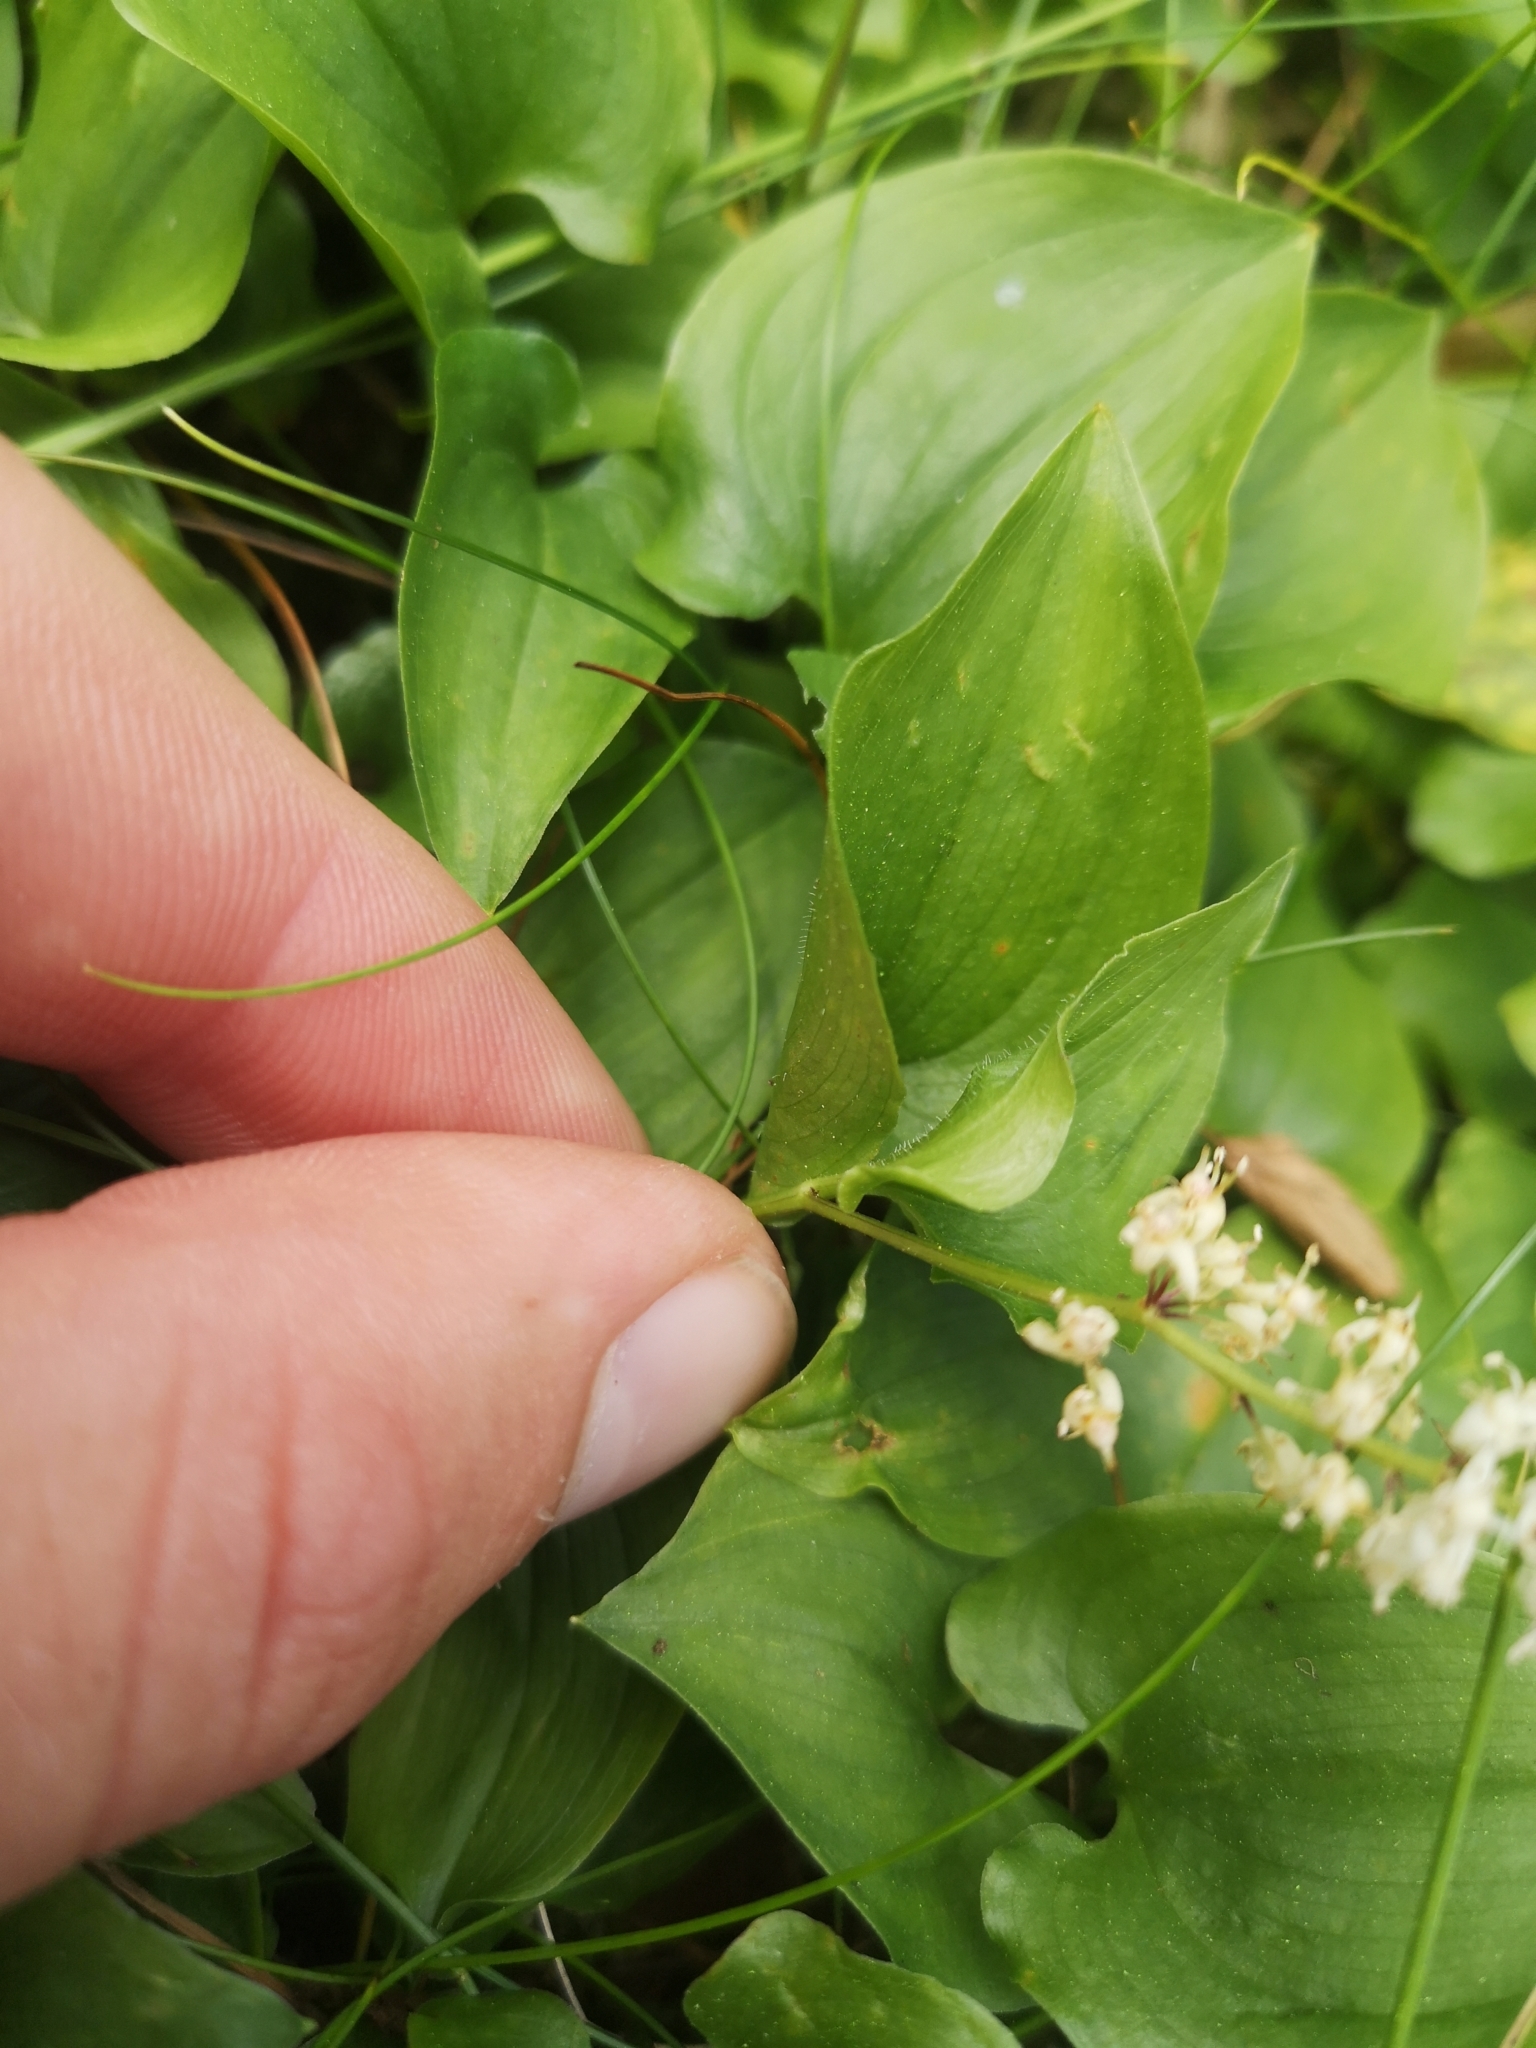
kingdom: Plantae
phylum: Tracheophyta
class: Liliopsida
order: Asparagales
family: Asparagaceae
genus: Maianthemum
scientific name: Maianthemum bifolium
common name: May lily
